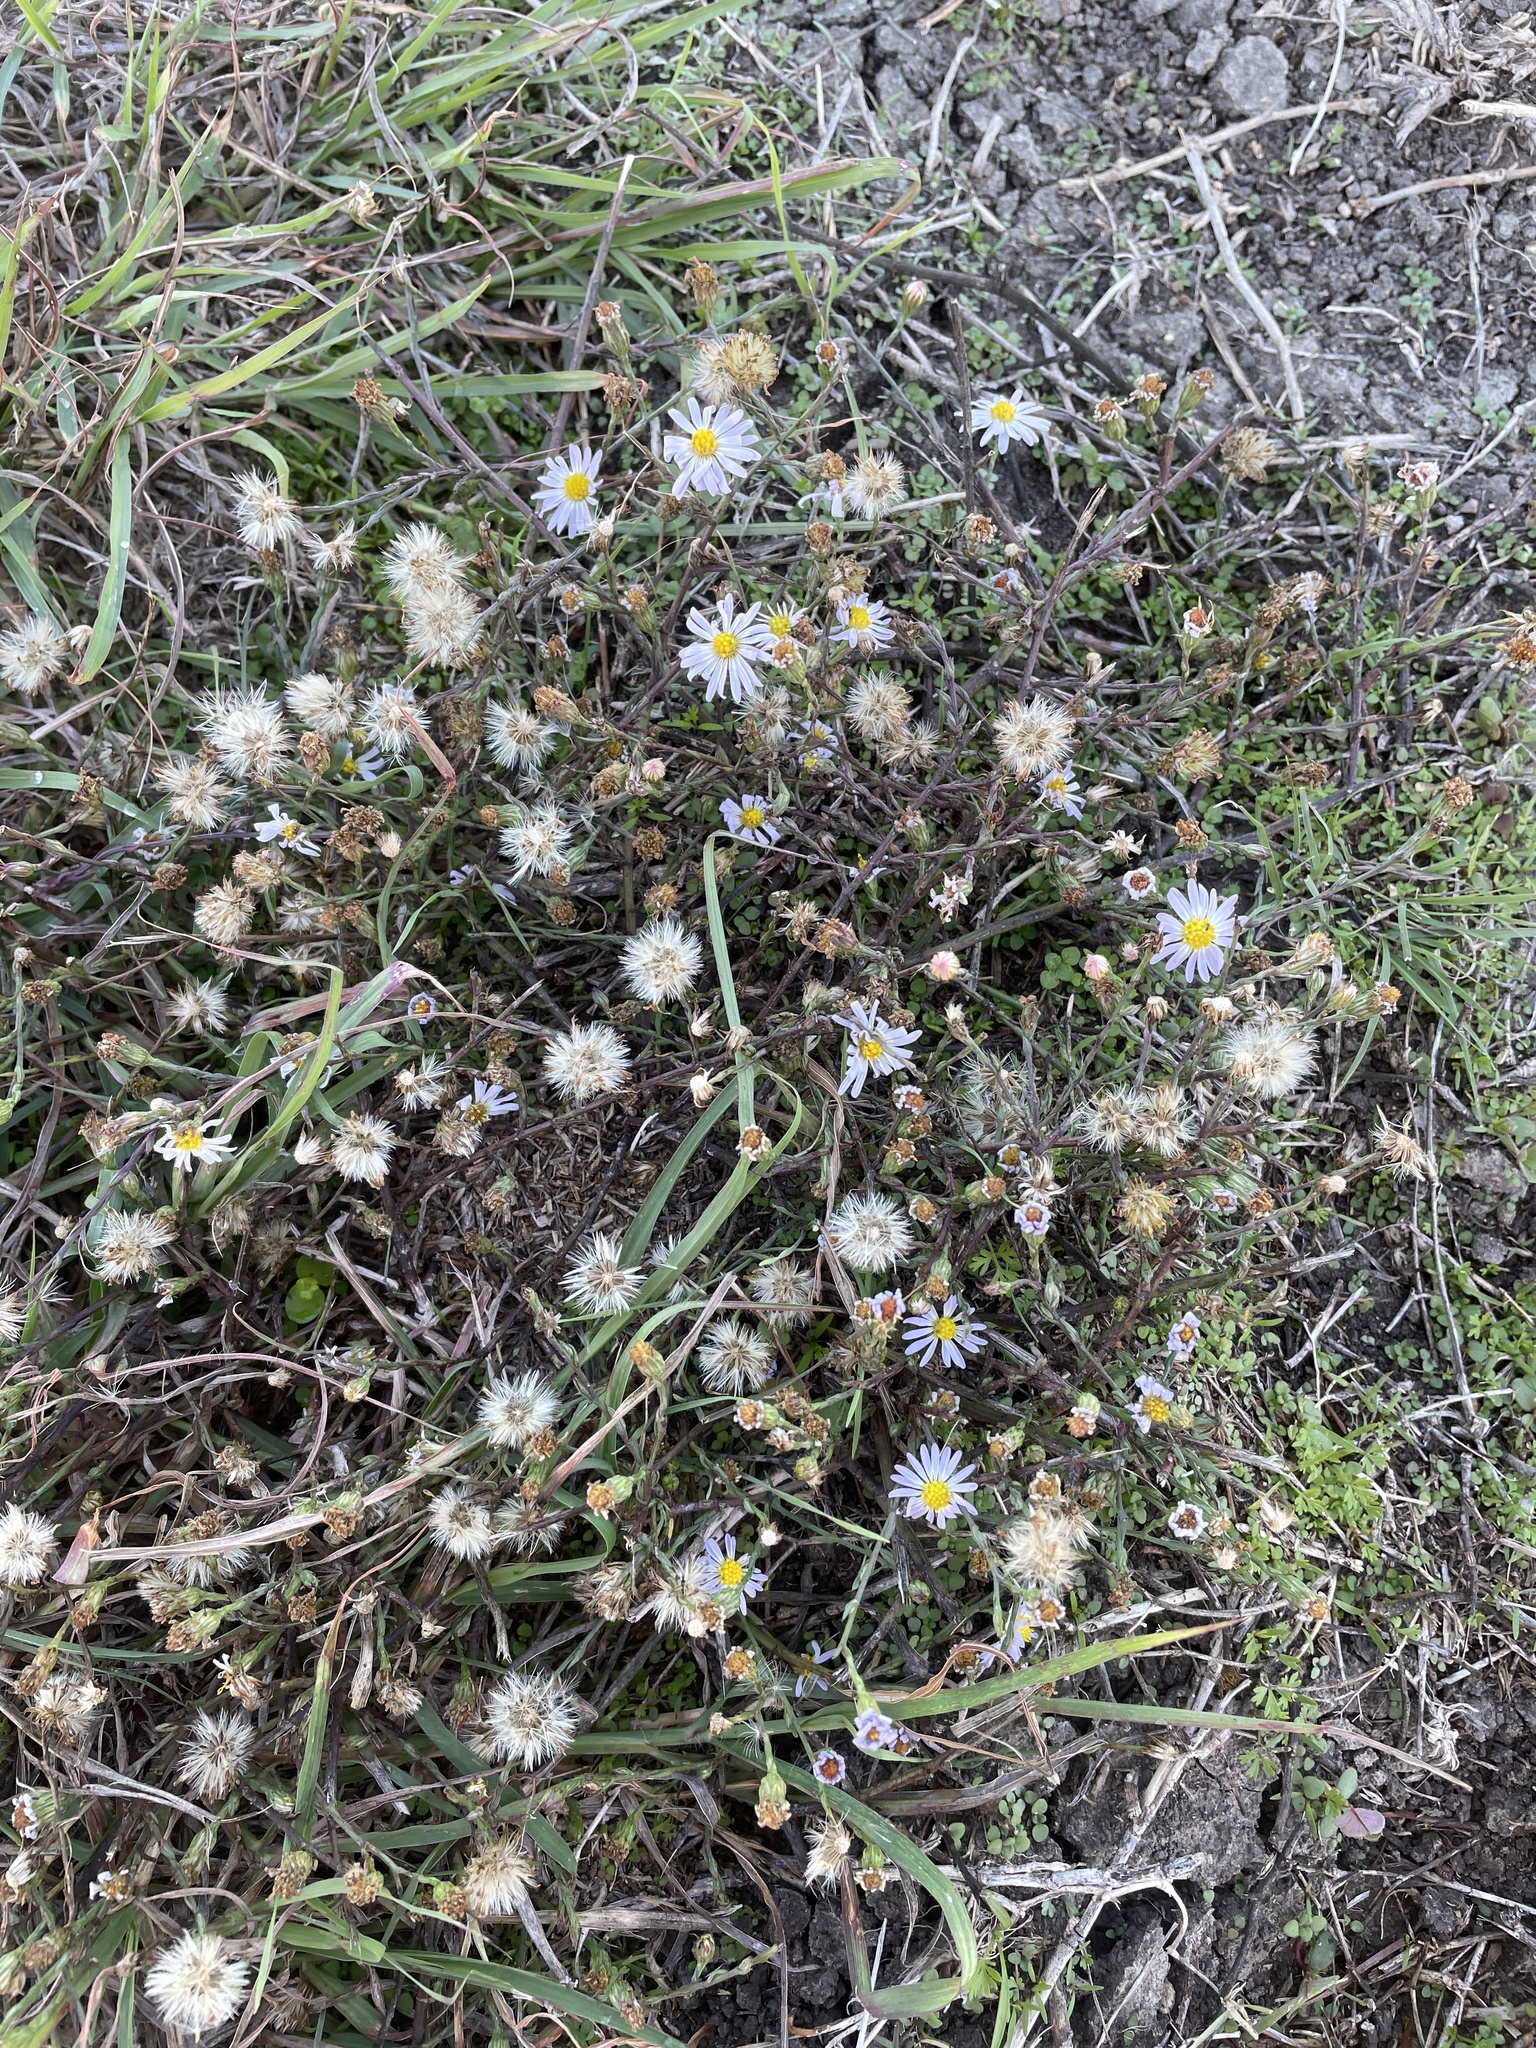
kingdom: Plantae
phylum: Tracheophyta
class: Magnoliopsida
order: Asterales
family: Asteraceae
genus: Symphyotrichum
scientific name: Symphyotrichum divaricatum
